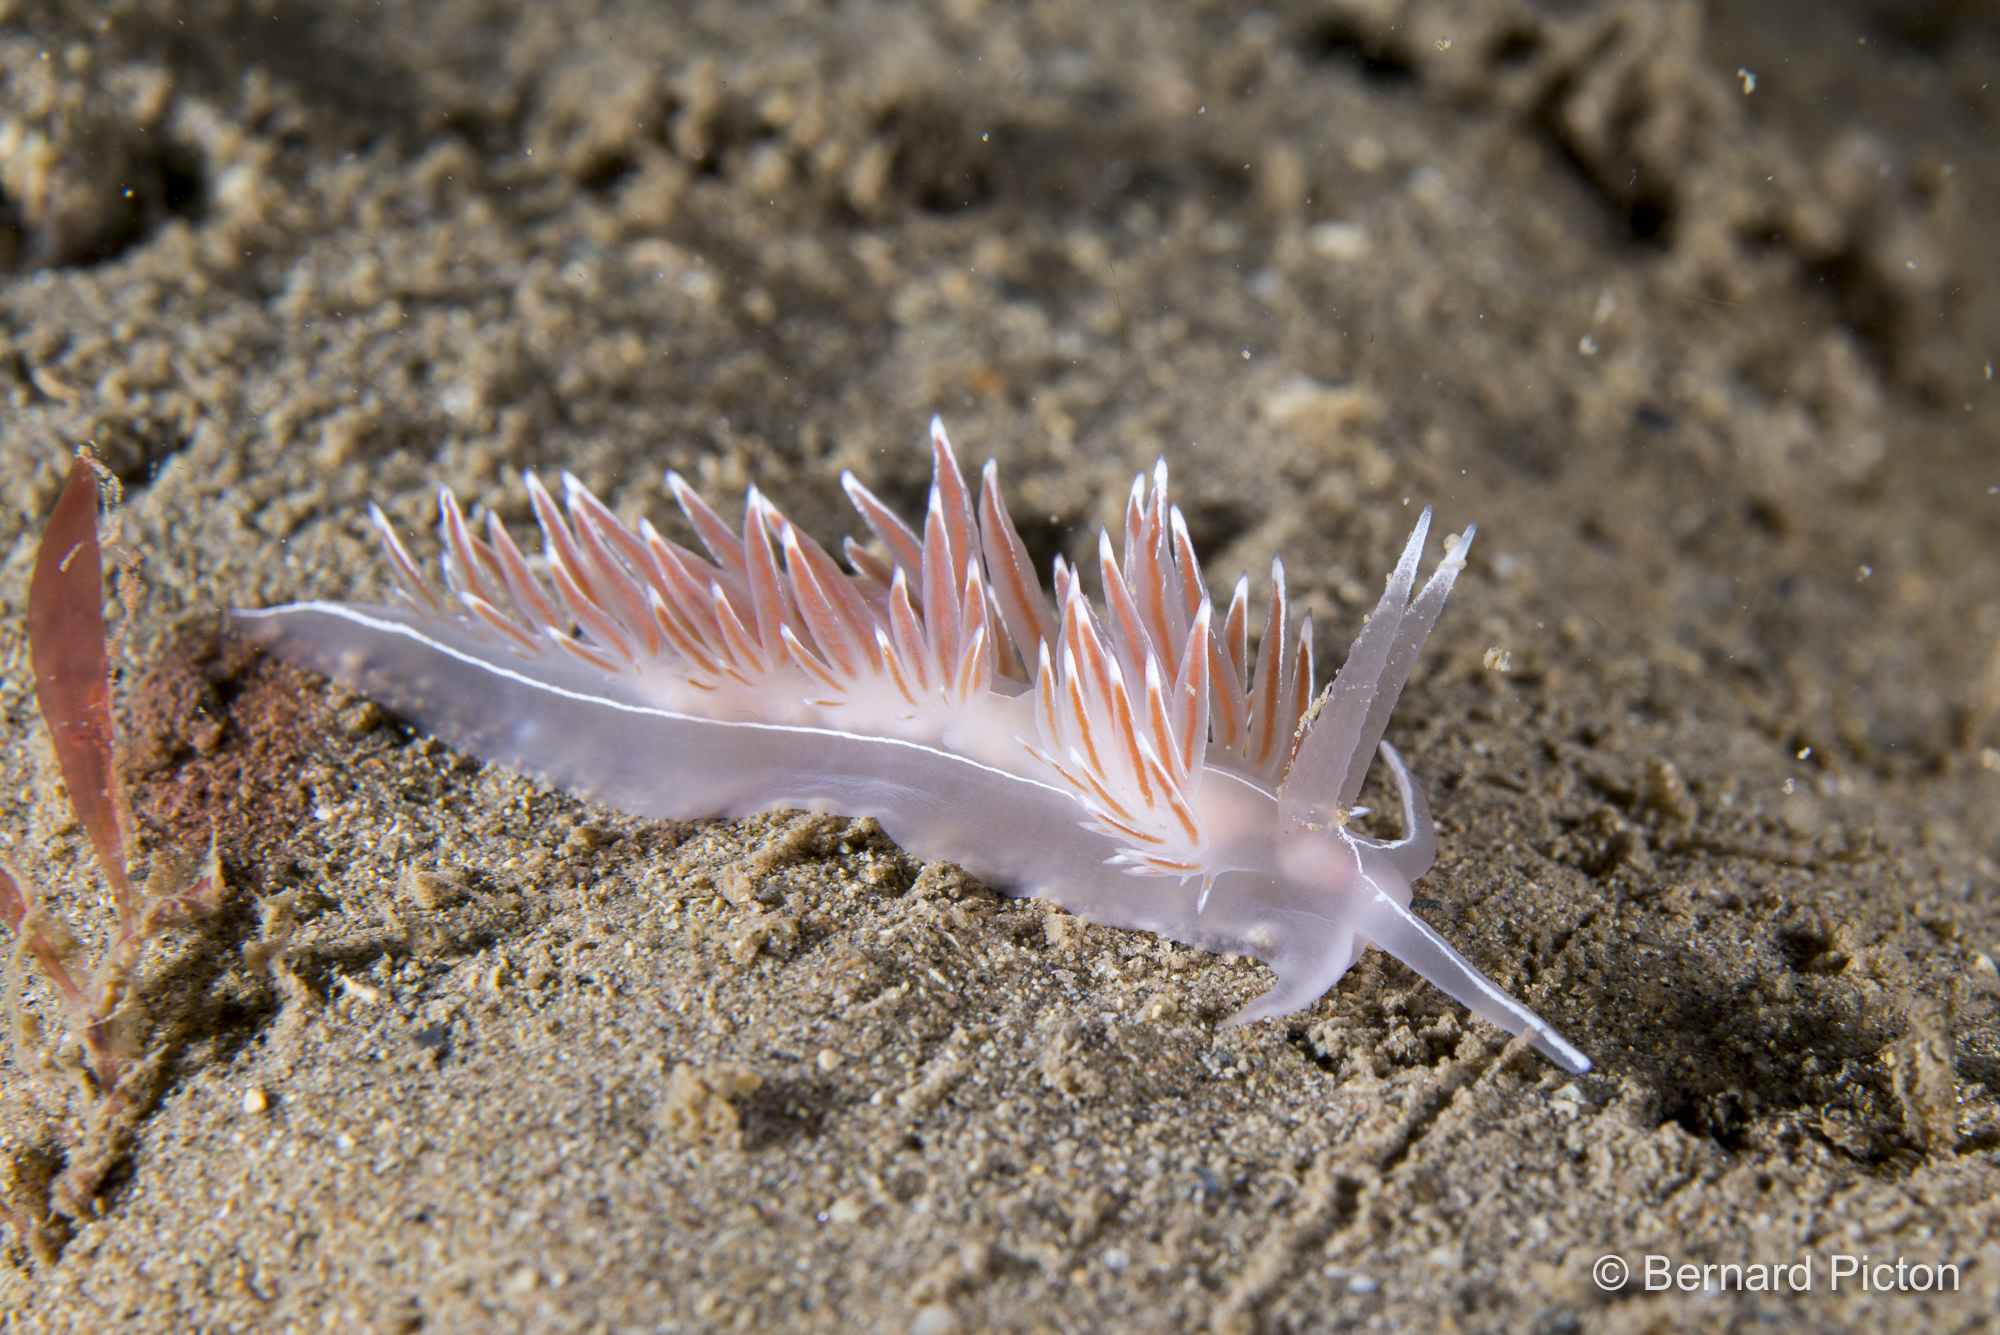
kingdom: Animalia
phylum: Mollusca
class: Gastropoda
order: Nudibranchia
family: Coryphellidae
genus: Coryphella
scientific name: Coryphella lineata
